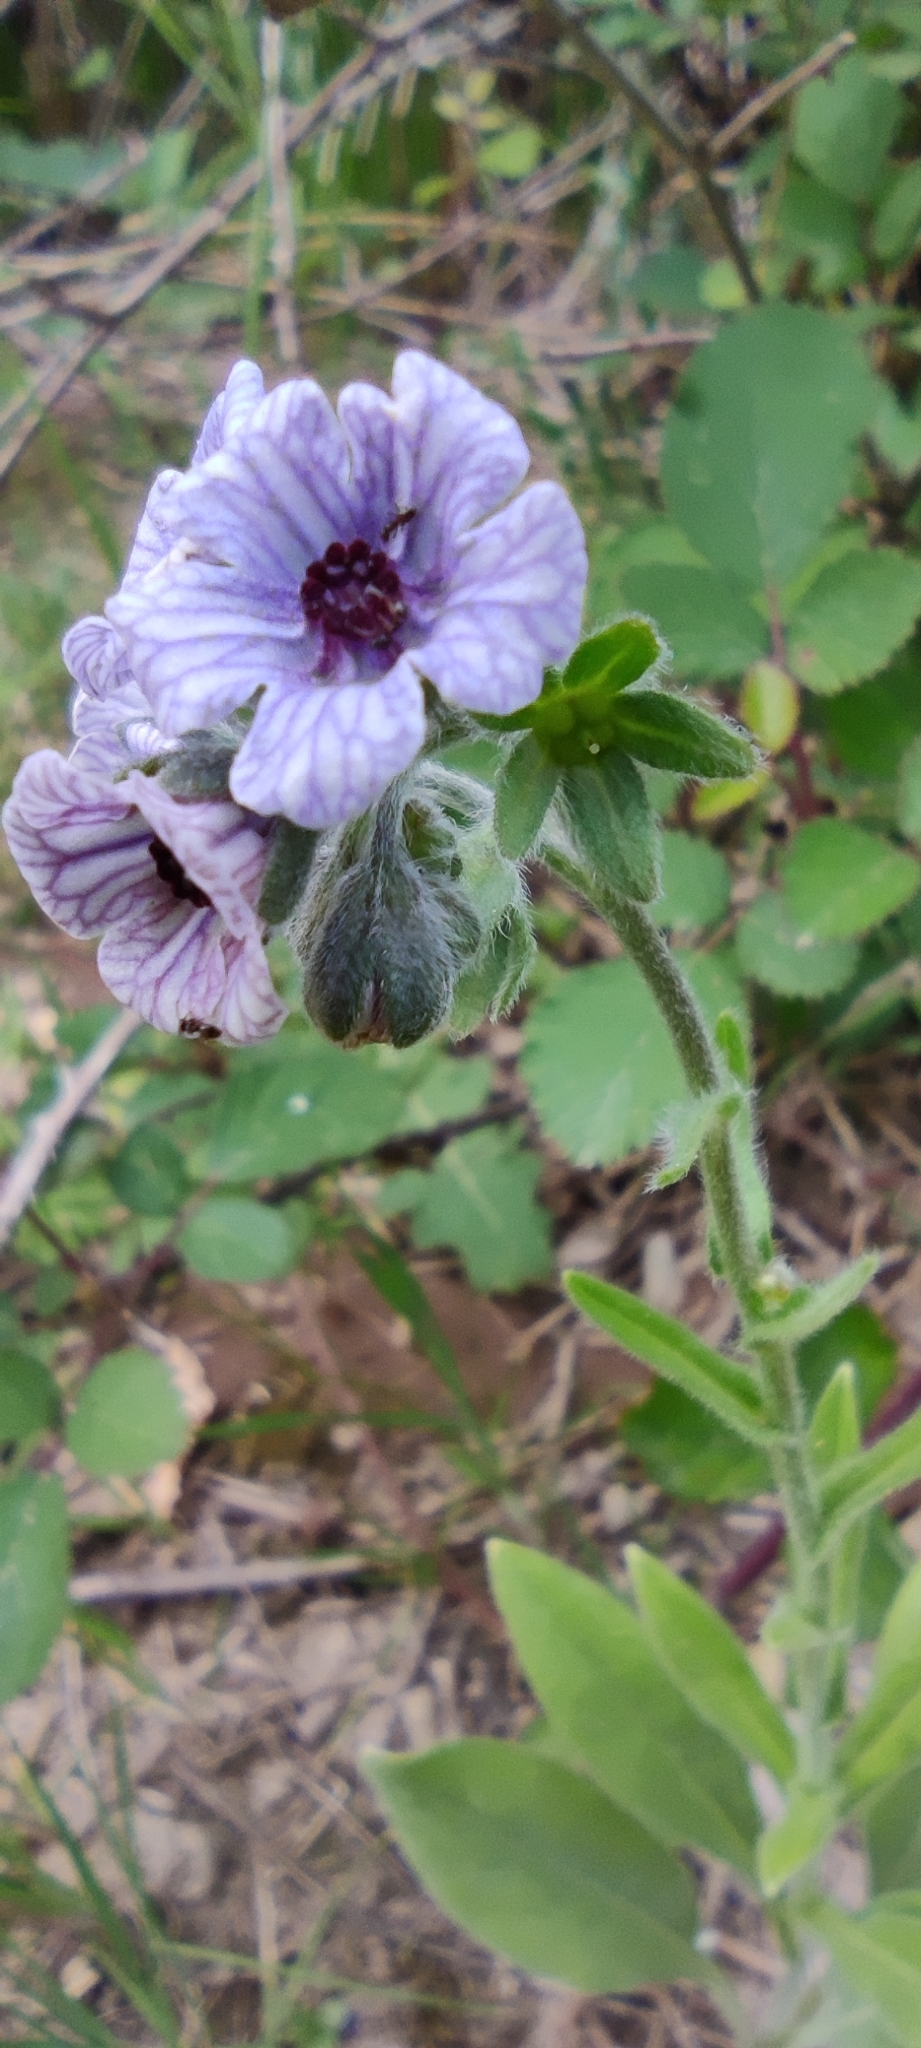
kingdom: Plantae
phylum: Tracheophyta
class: Magnoliopsida
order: Boraginales
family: Boraginaceae
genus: Cynoglossum
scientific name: Cynoglossum creticum
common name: Blue hound's tongue
